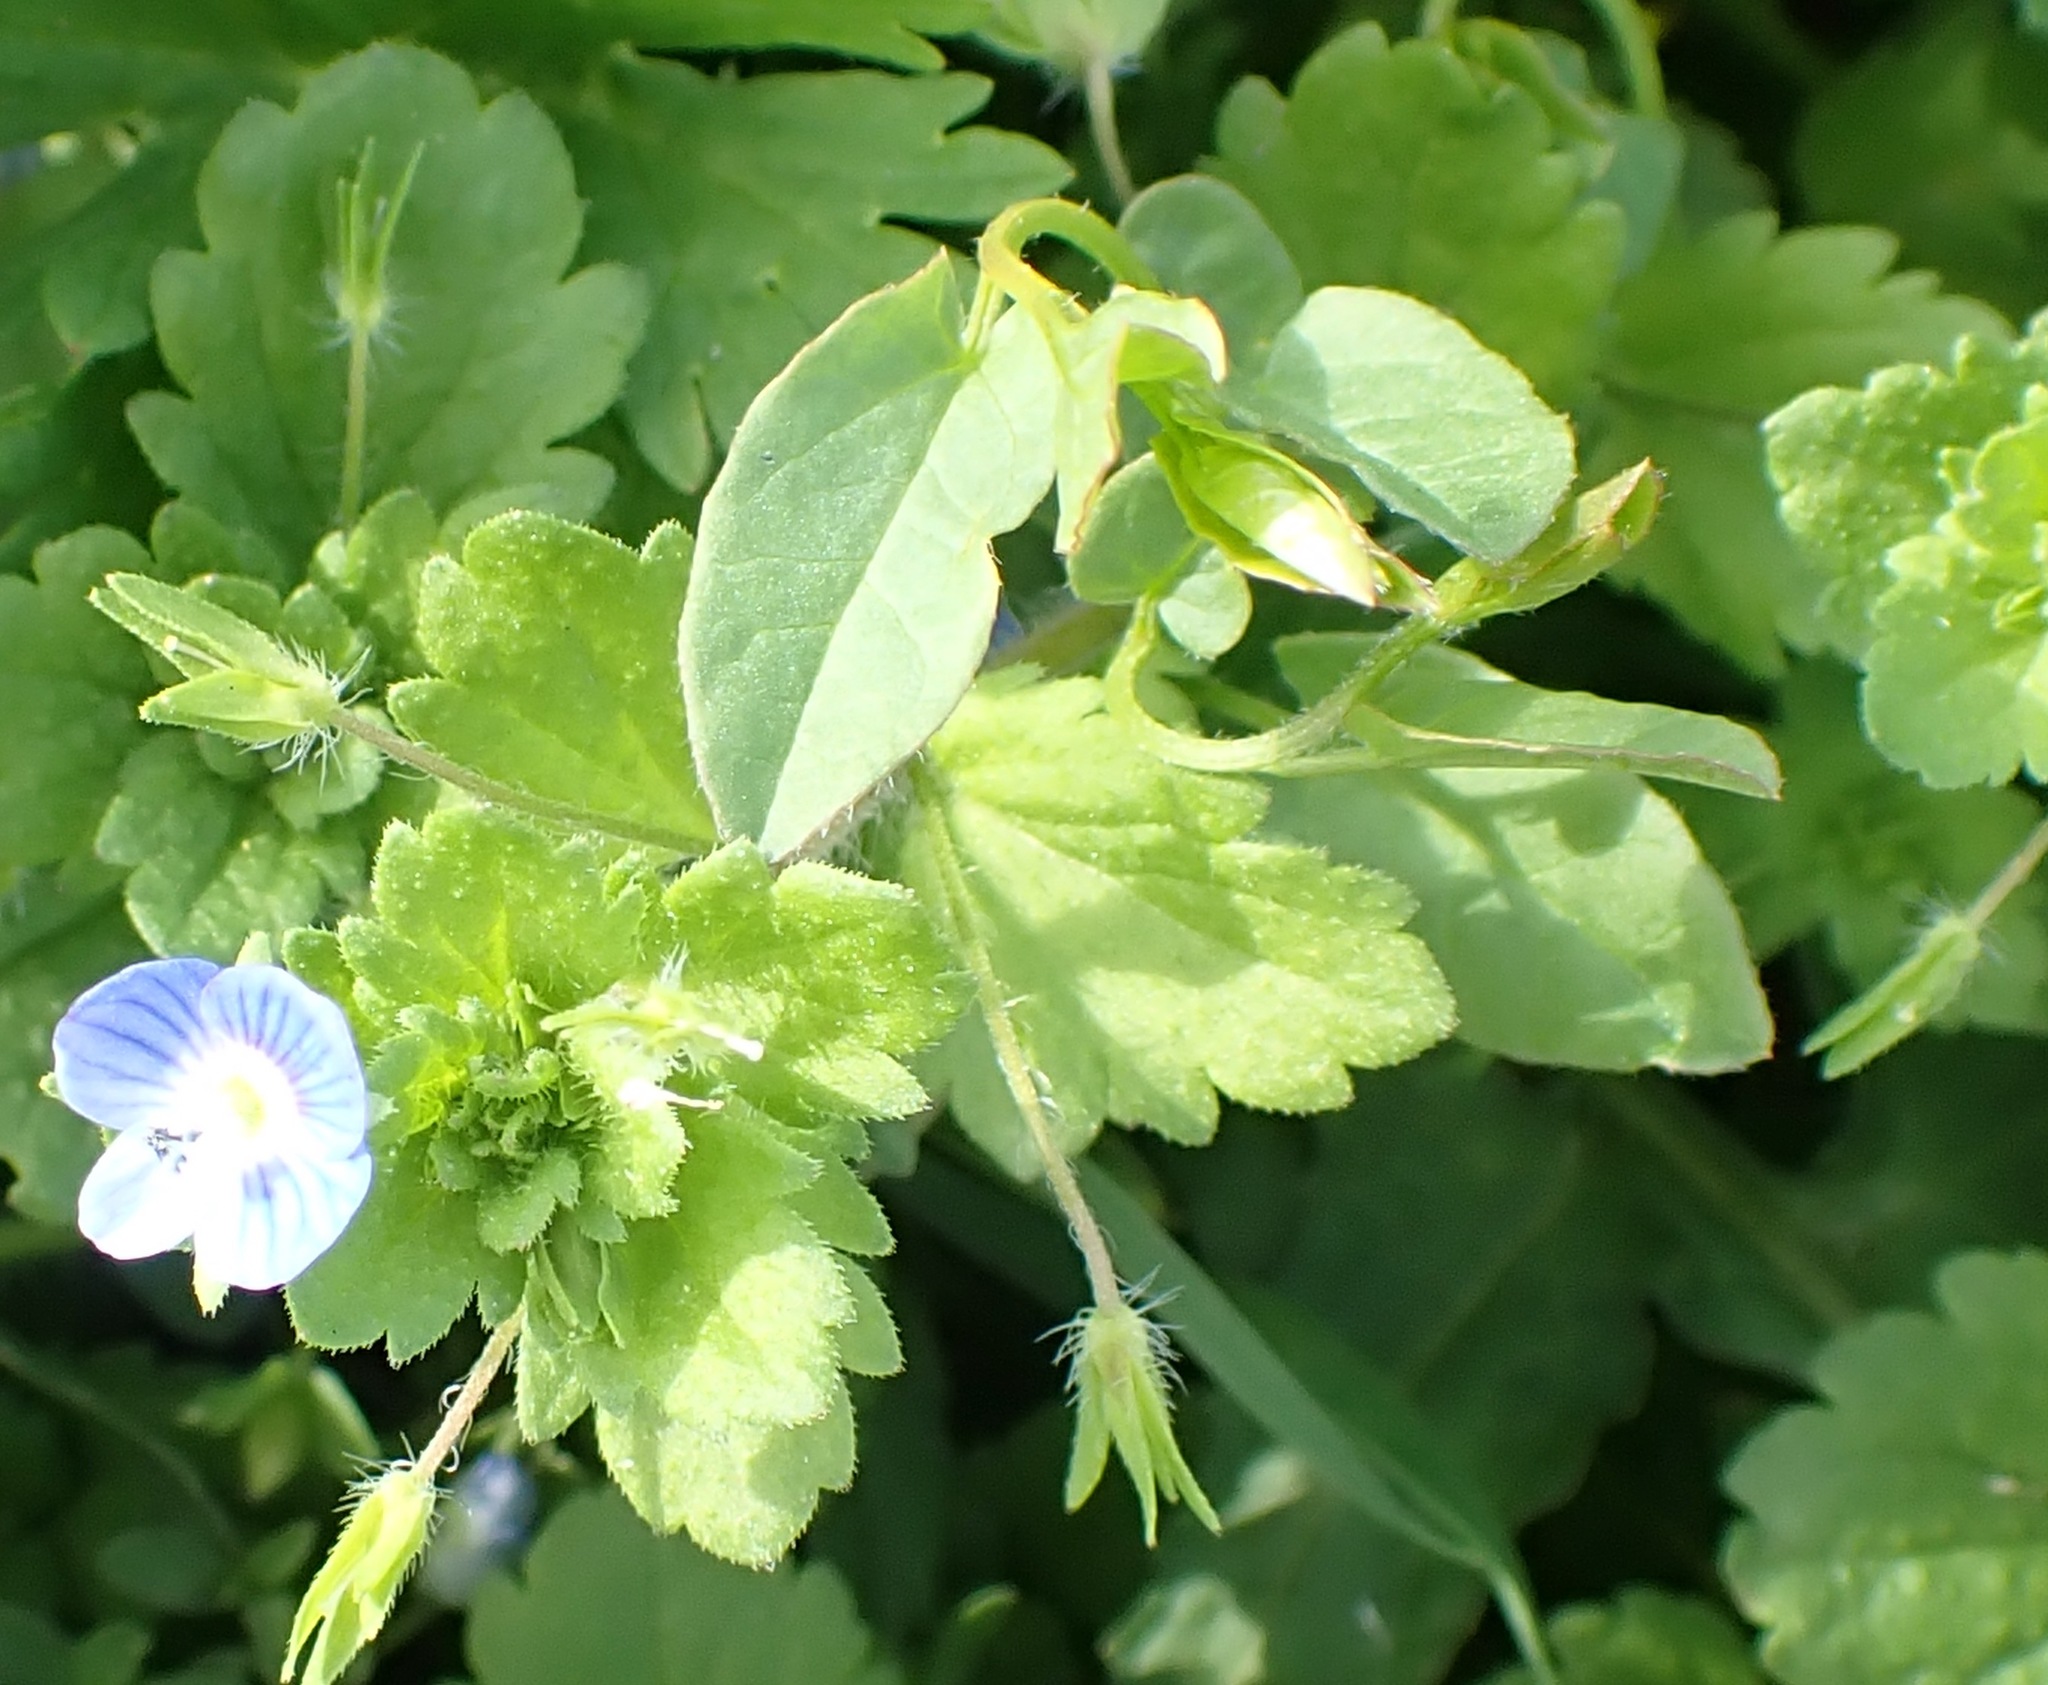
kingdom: Plantae
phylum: Tracheophyta
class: Magnoliopsida
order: Lamiales
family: Plantaginaceae
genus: Veronica
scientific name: Veronica persica
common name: Common field-speedwell
